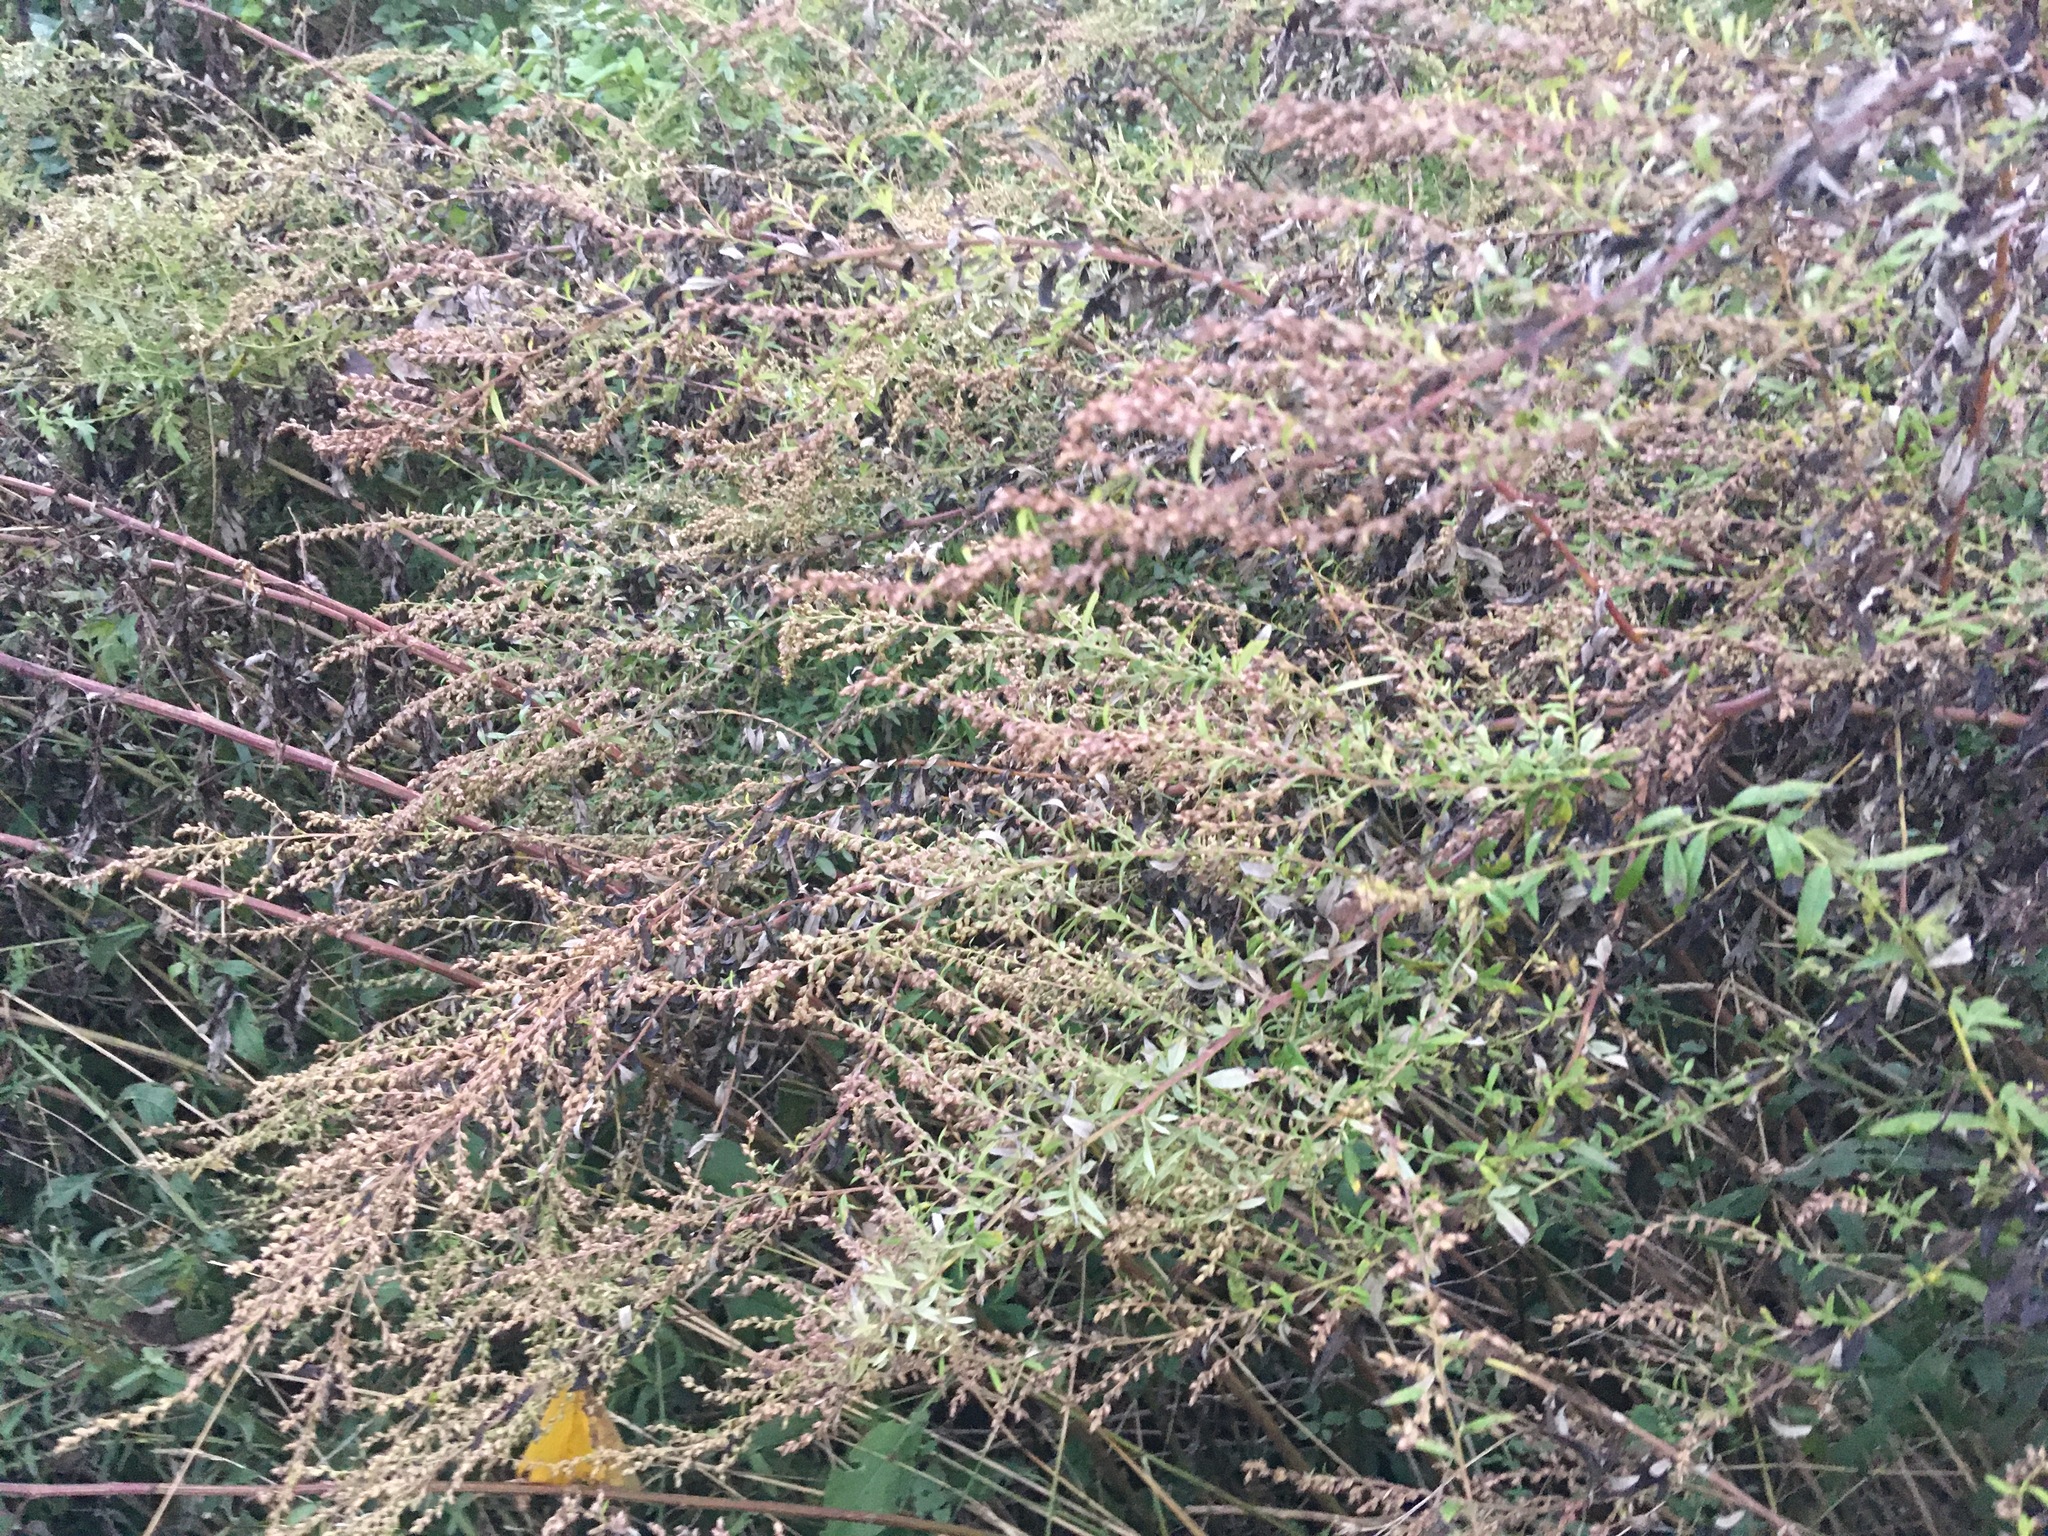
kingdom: Plantae
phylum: Tracheophyta
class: Magnoliopsida
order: Asterales
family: Asteraceae
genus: Artemisia
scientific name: Artemisia vulgaris
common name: Mugwort
